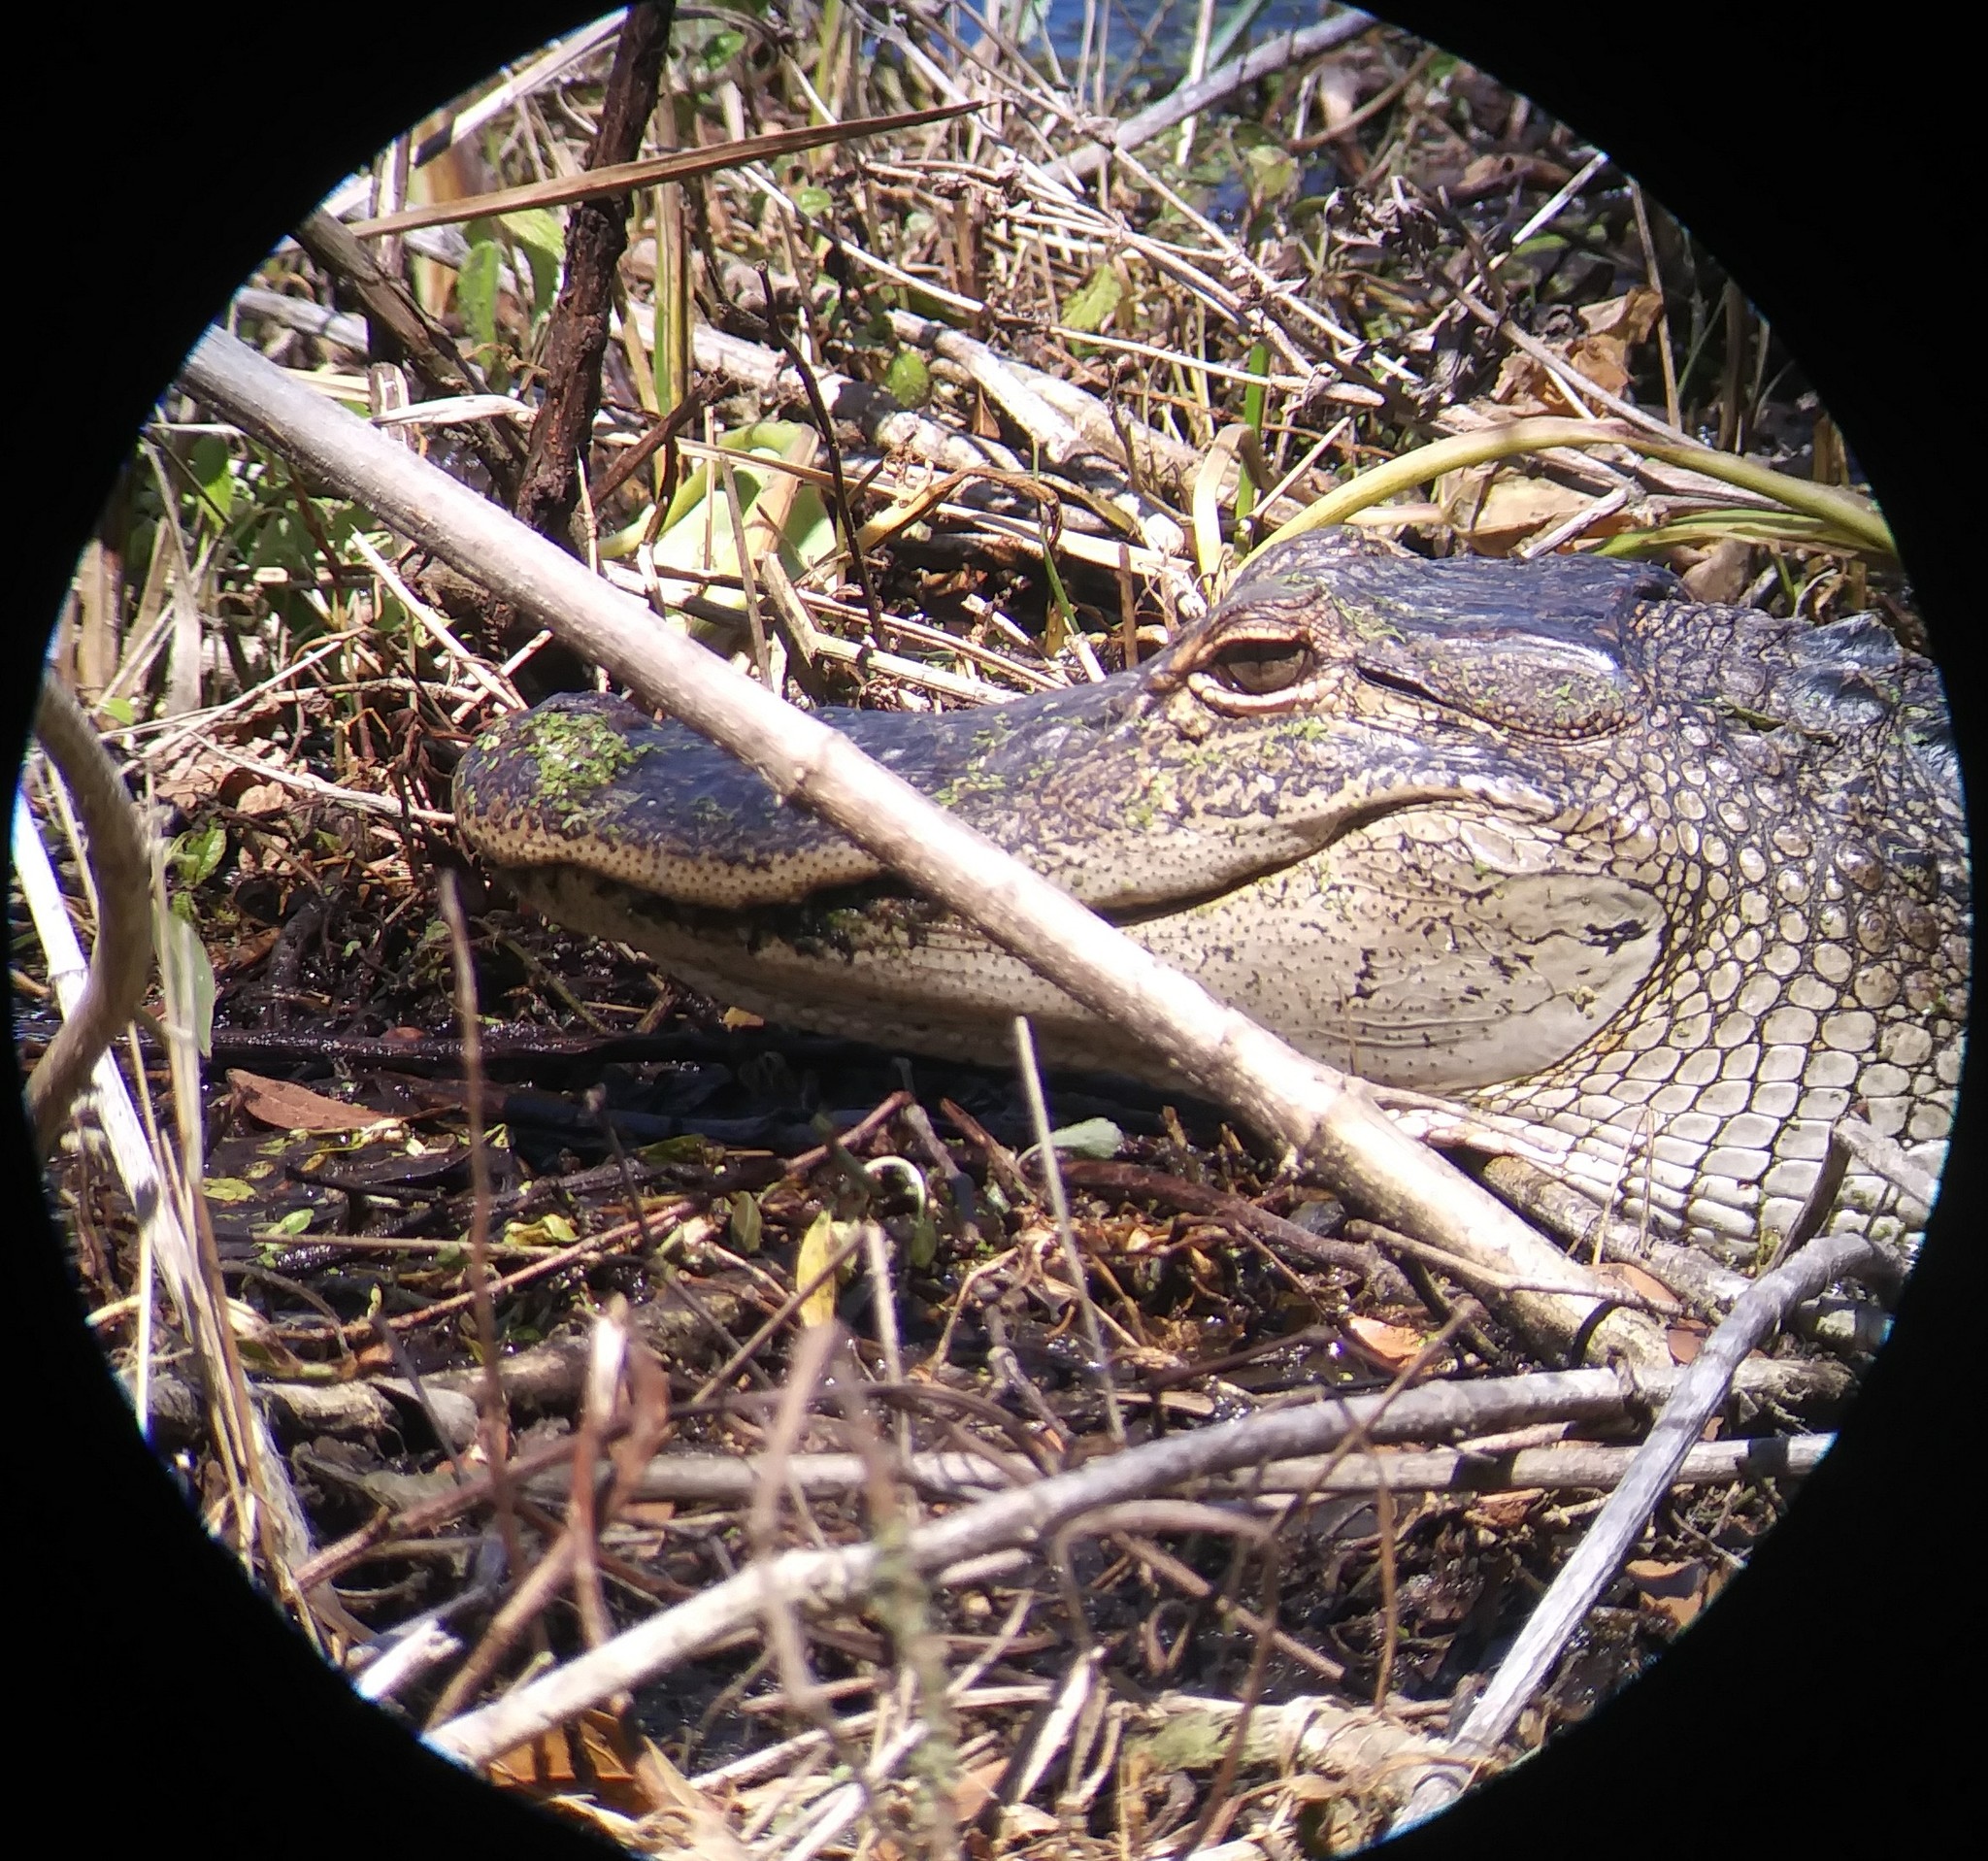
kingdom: Animalia
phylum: Chordata
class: Crocodylia
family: Alligatoridae
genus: Alligator
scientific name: Alligator mississippiensis
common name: American alligator
